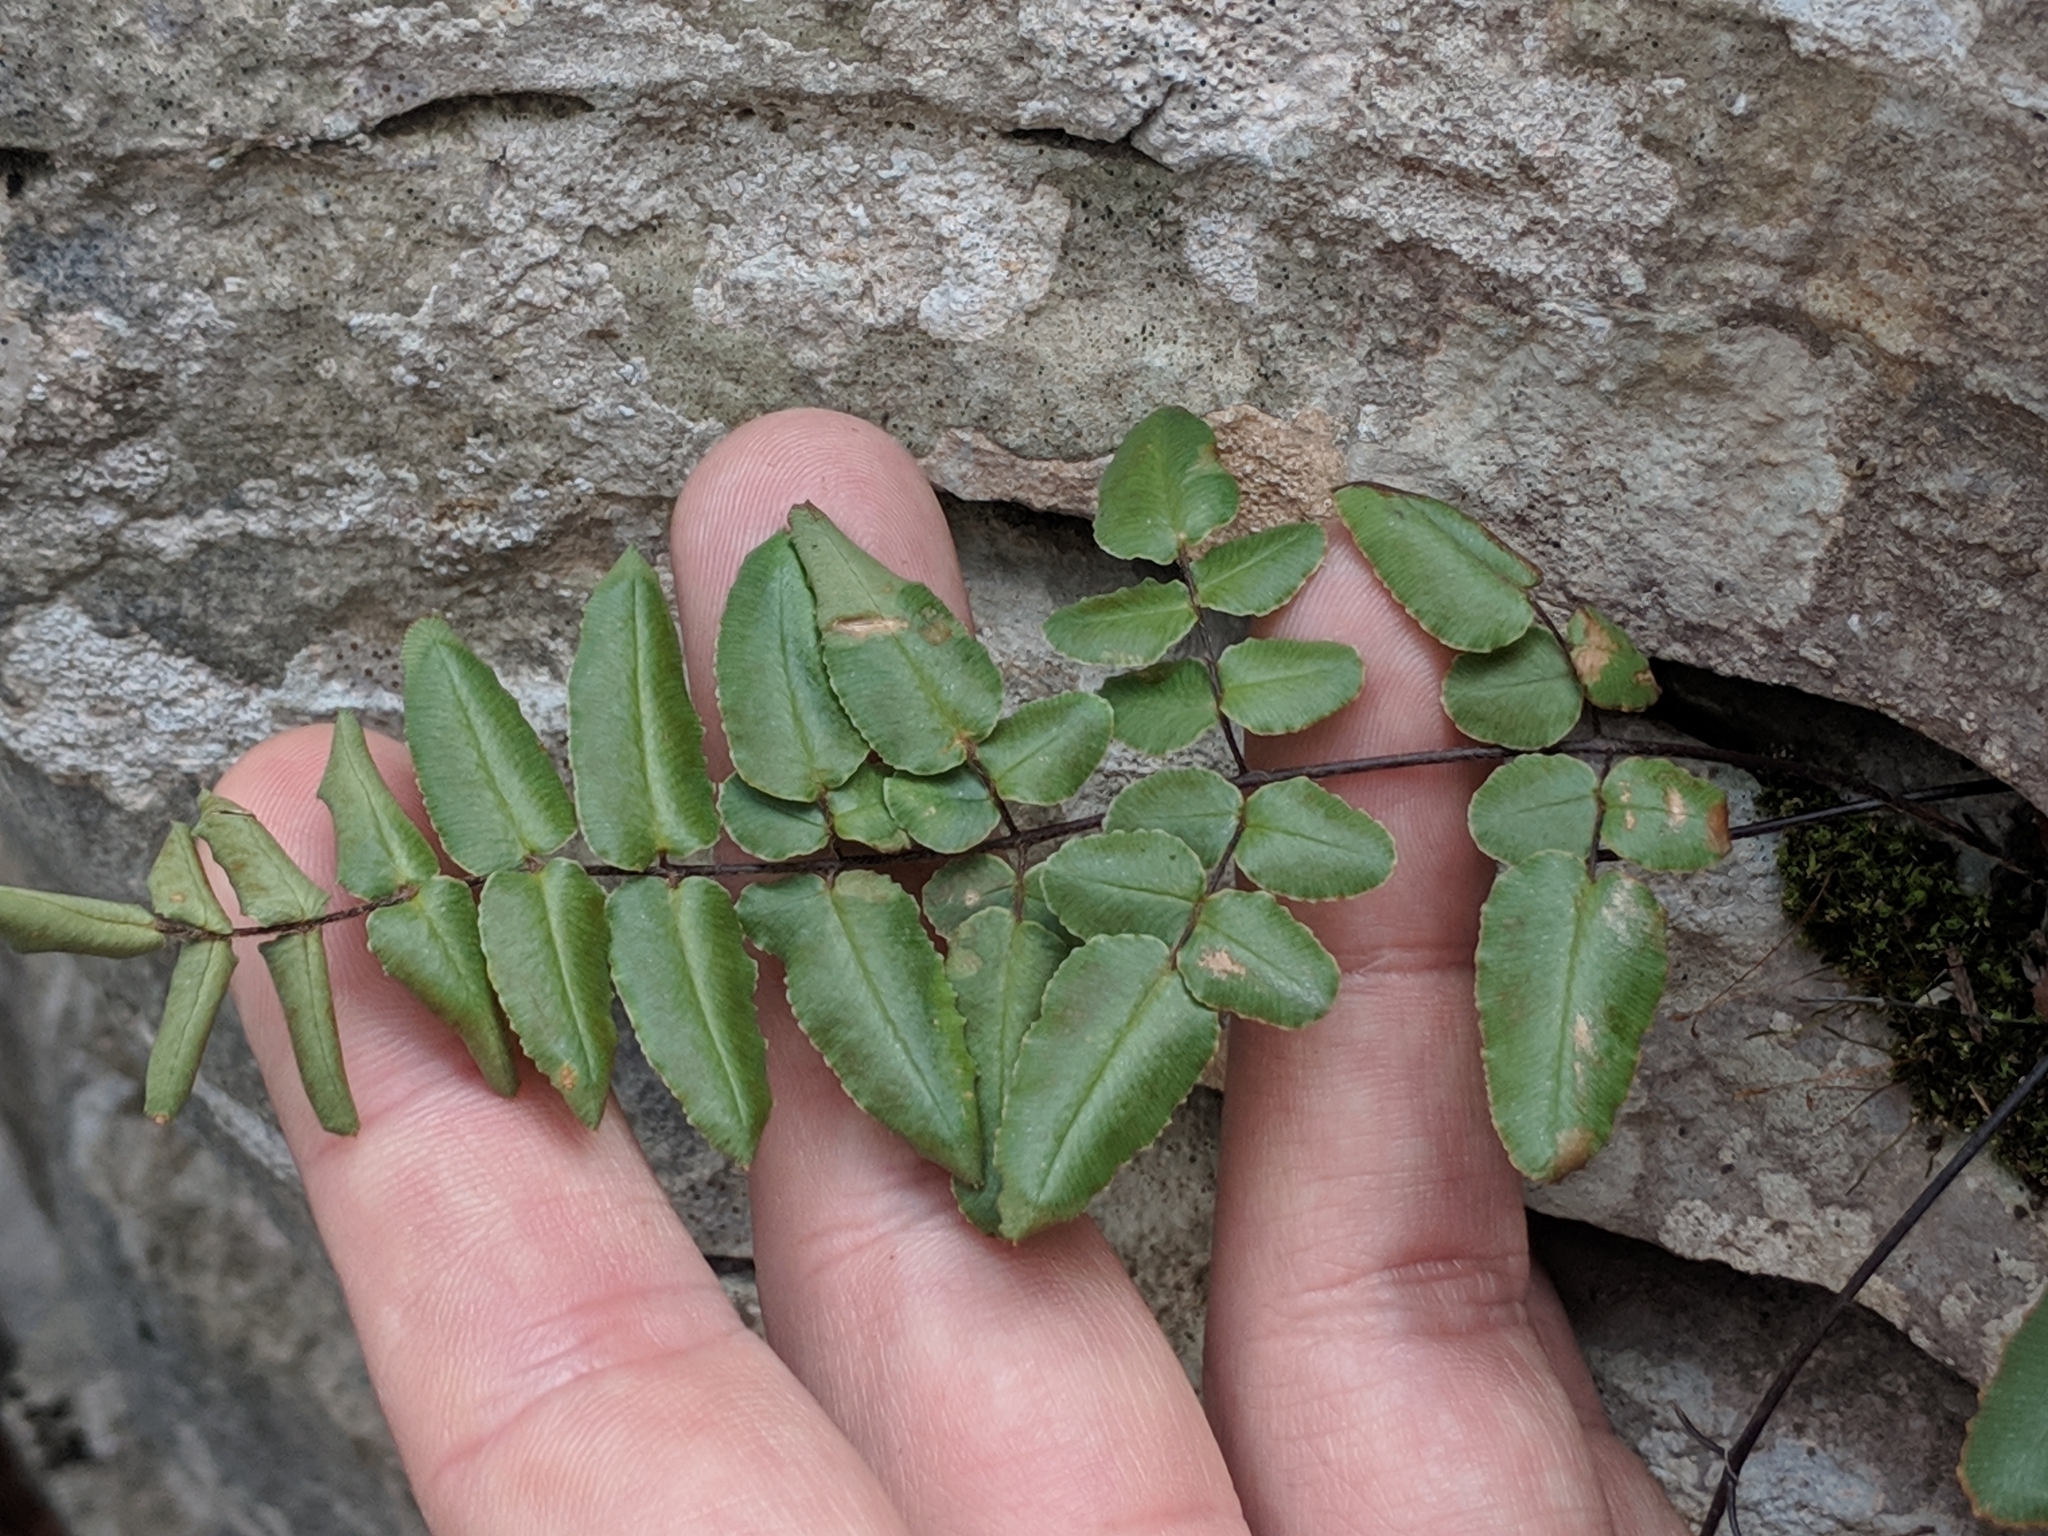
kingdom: Plantae
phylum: Tracheophyta
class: Polypodiopsida
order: Polypodiales
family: Pteridaceae
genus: Pellaea
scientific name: Pellaea atropurpurea
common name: Hairy cliffbrake
